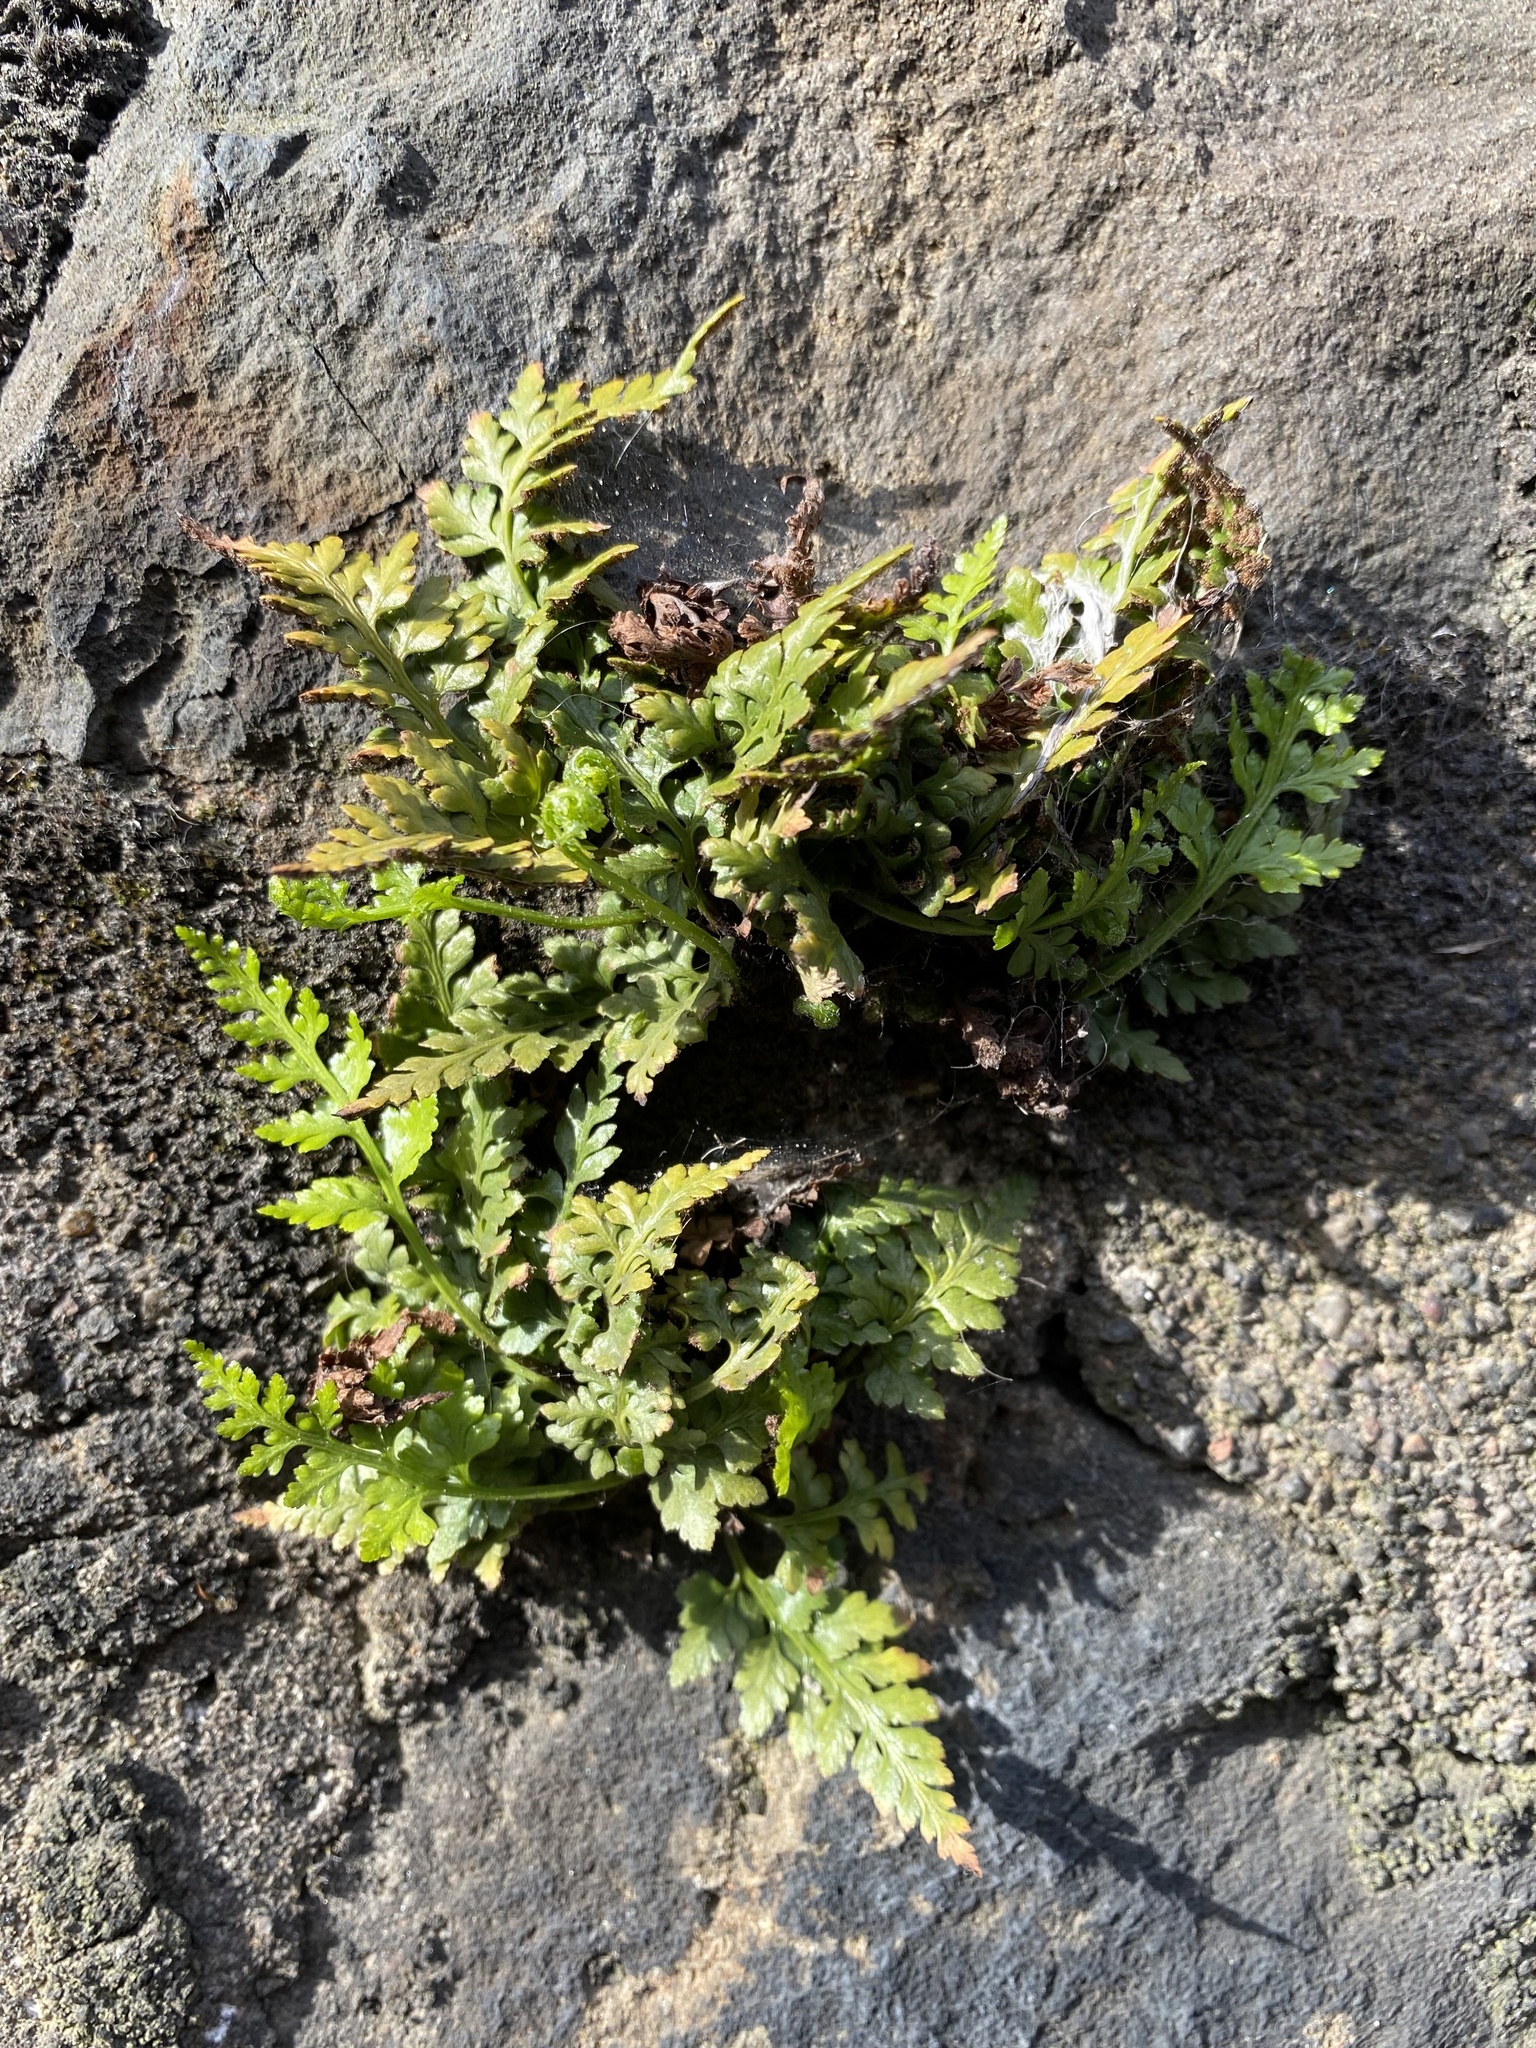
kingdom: Plantae
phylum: Tracheophyta
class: Polypodiopsida
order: Polypodiales
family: Aspleniaceae
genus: Asplenium
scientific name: Asplenium adiantum-nigrum
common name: Black spleenwort
